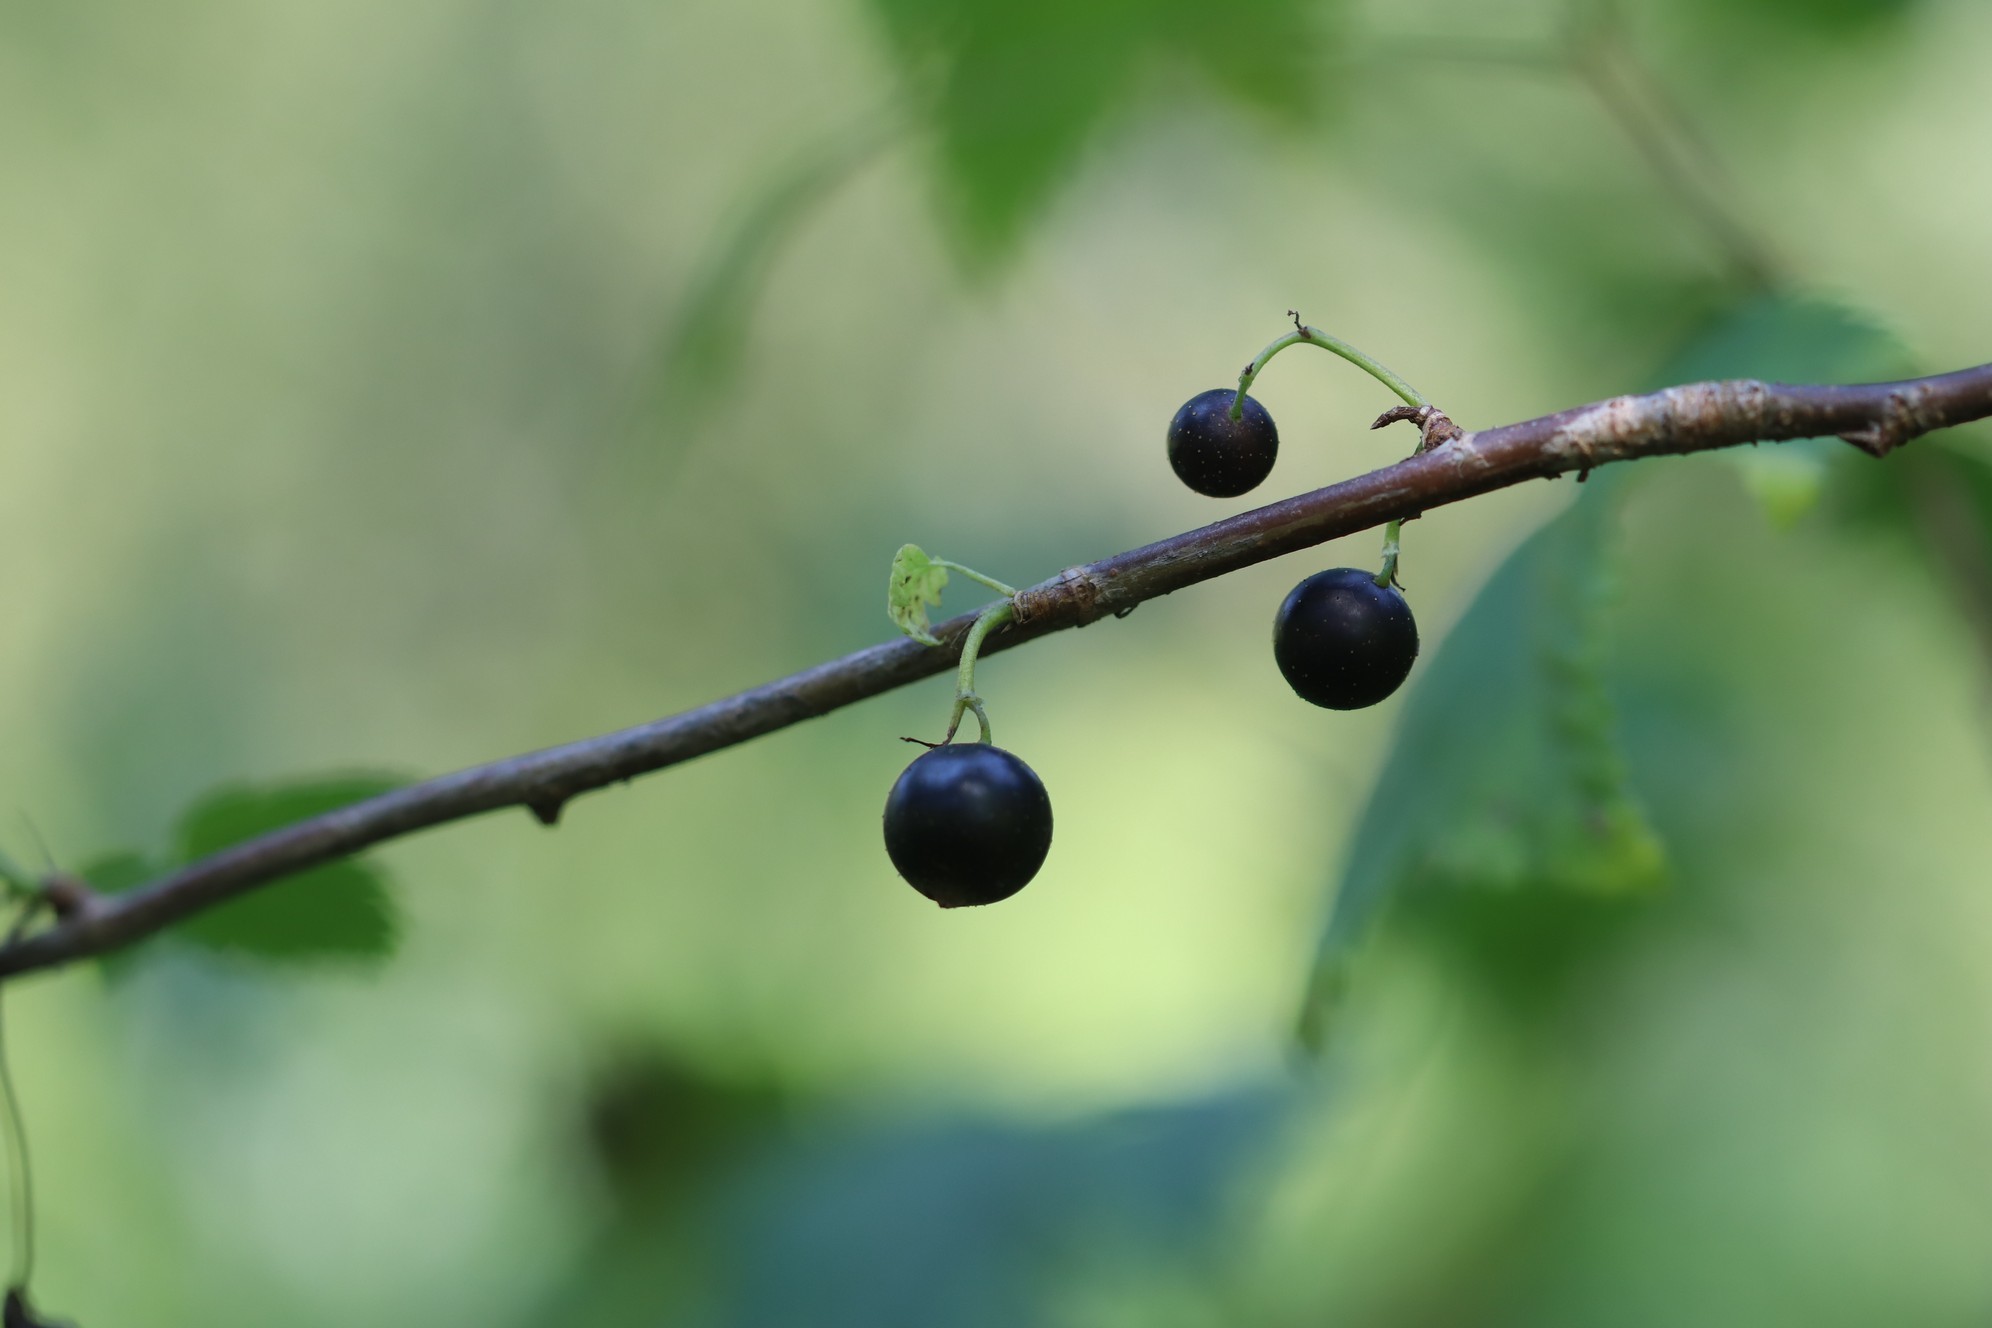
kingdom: Plantae
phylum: Tracheophyta
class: Magnoliopsida
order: Saxifragales
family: Grossulariaceae
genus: Ribes
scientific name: Ribes nigrum
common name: Black currant
